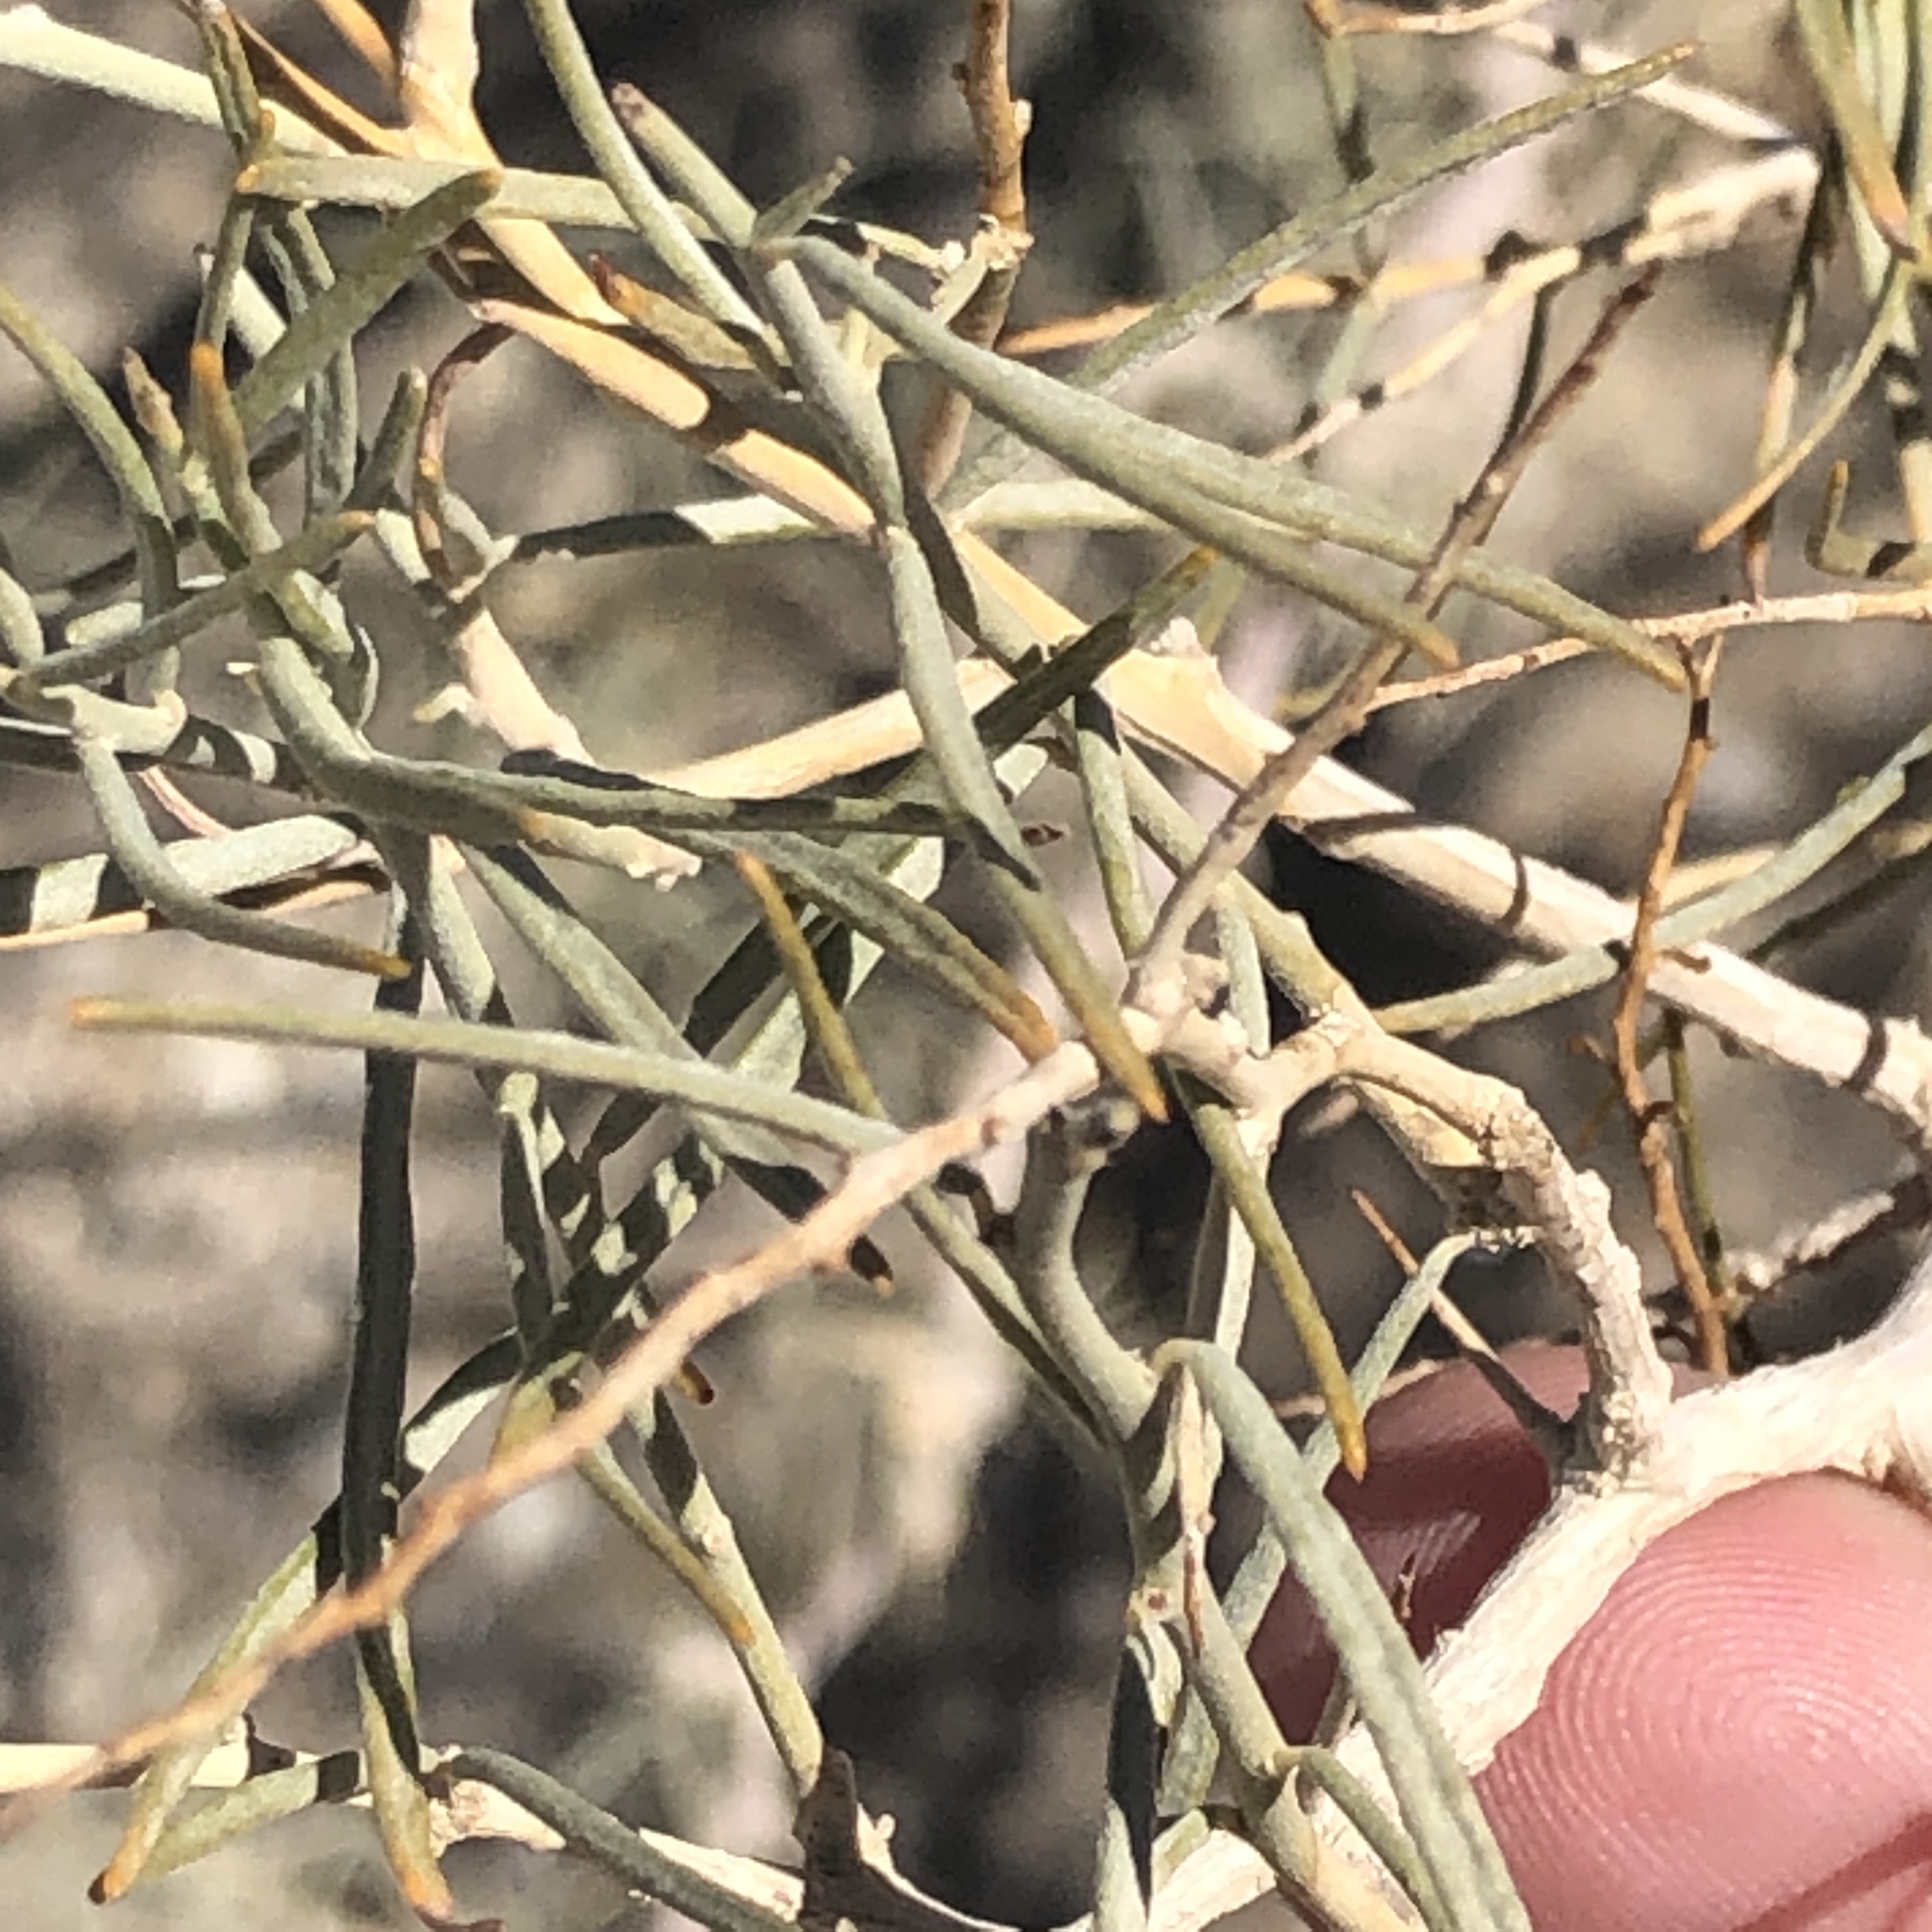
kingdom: Plantae
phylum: Tracheophyta
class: Magnoliopsida
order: Fabales
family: Fabaceae
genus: Psorothamnus
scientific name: Psorothamnus schottii
